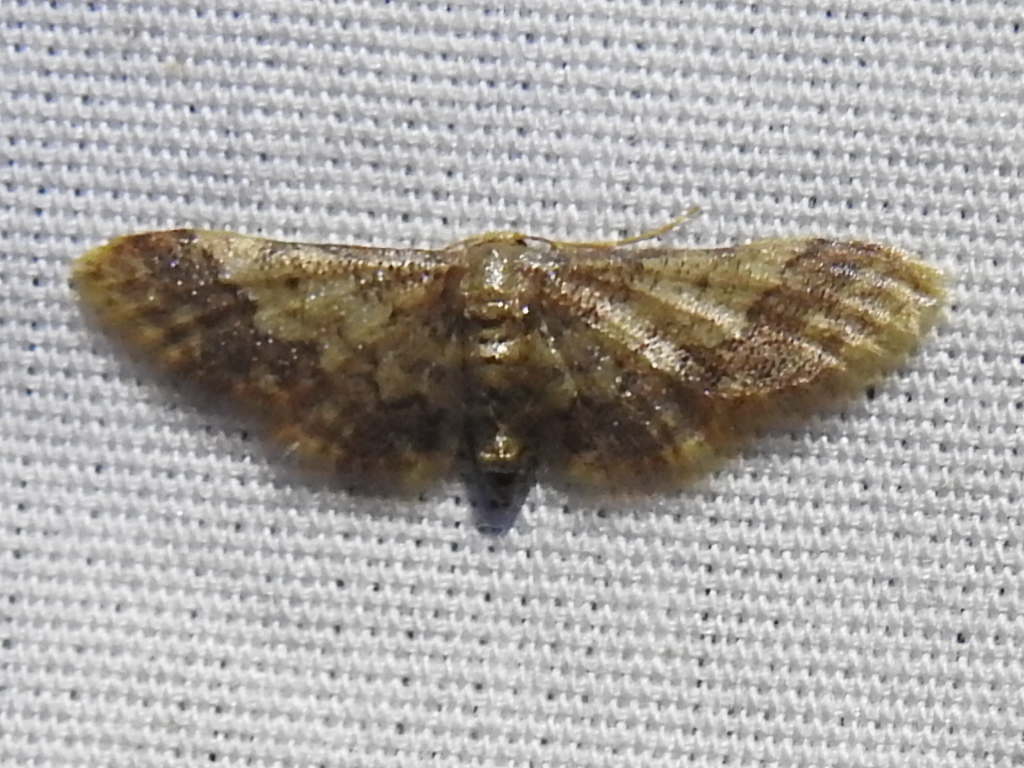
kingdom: Animalia
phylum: Arthropoda
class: Insecta
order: Lepidoptera
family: Geometridae
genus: Idaea
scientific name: Idaea furciferata
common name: Notch-winged wave
